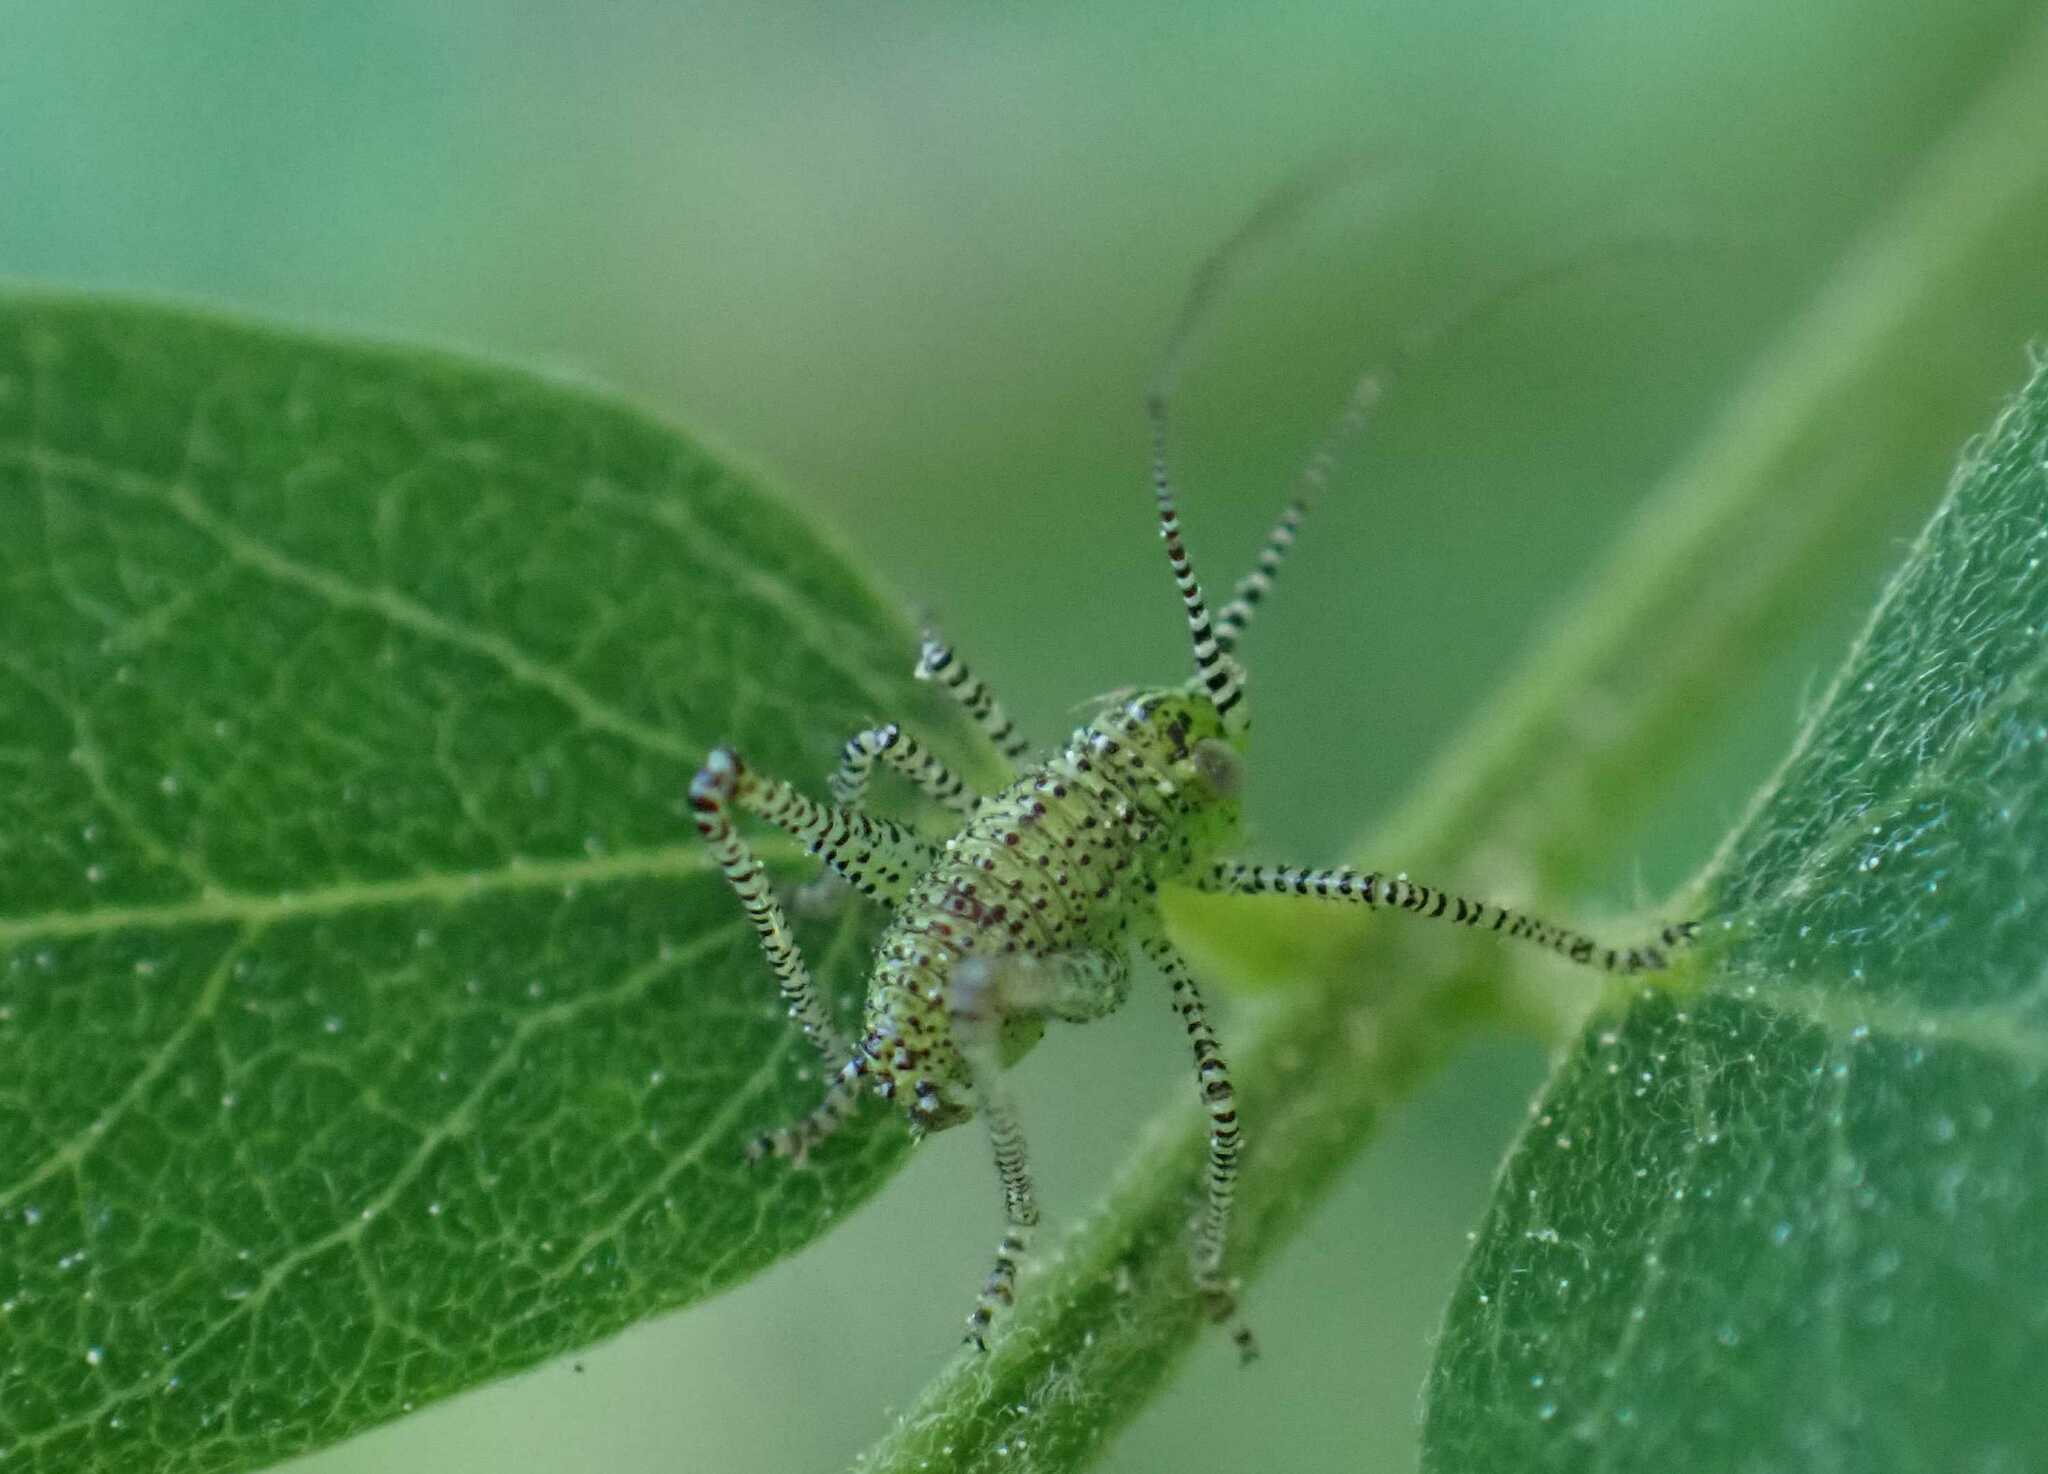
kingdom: Animalia
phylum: Arthropoda
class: Insecta
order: Orthoptera
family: Tettigoniidae
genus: Leptophyes
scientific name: Leptophyes punctatissima
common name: Speckled bush-cricket
